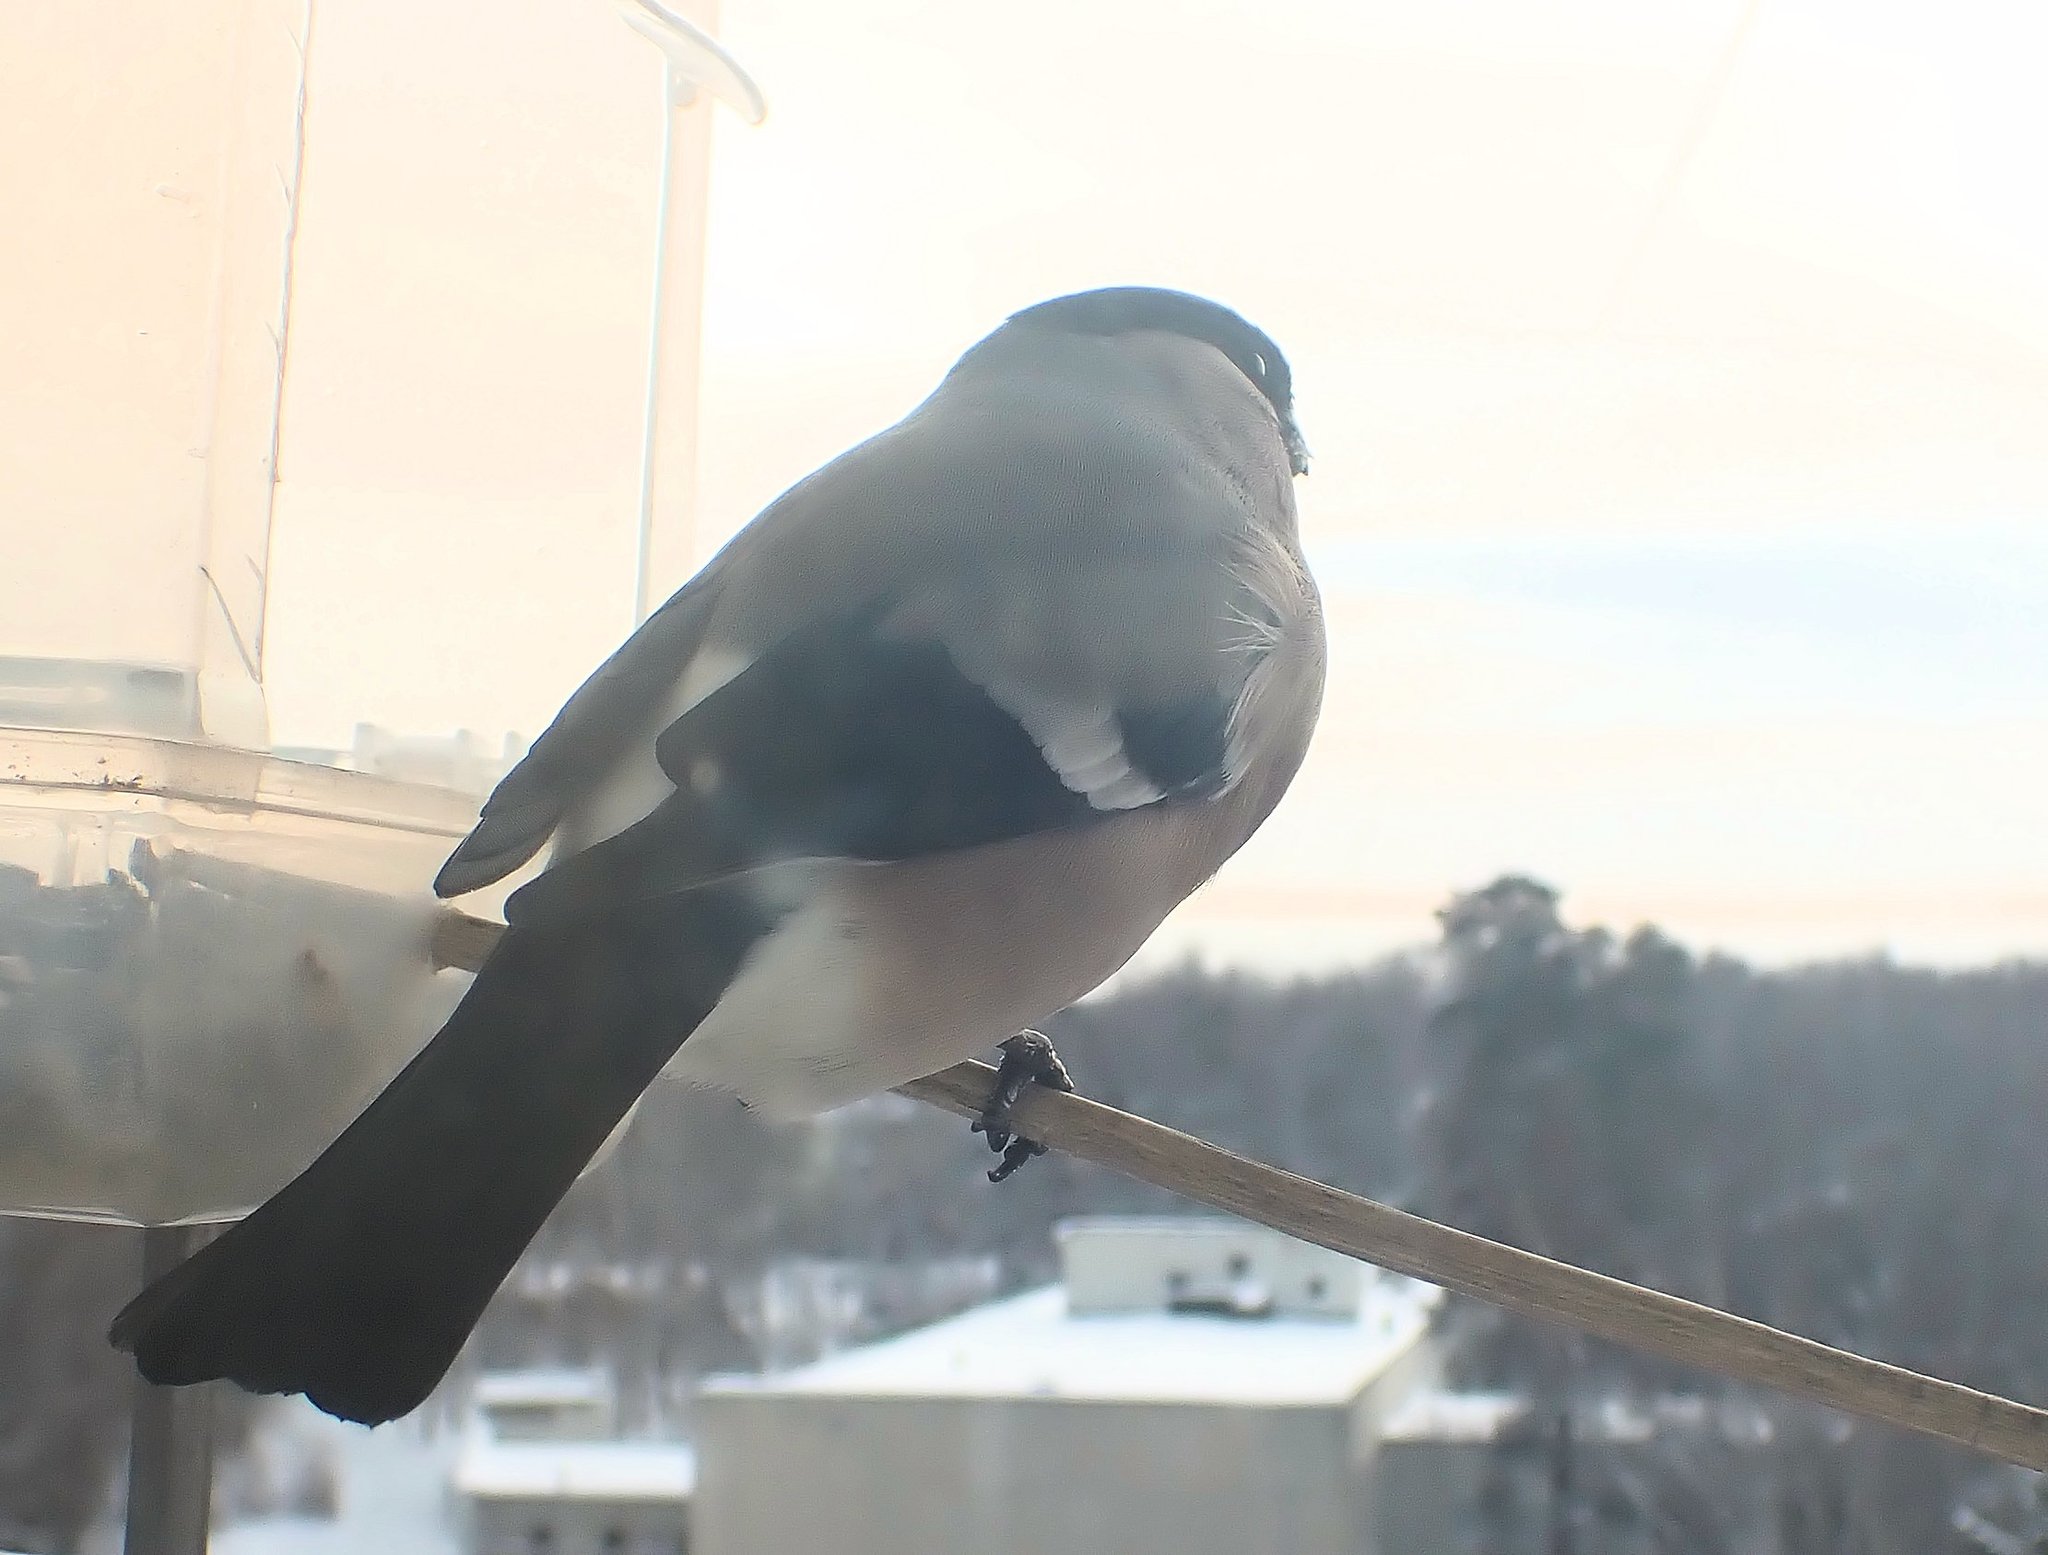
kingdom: Animalia
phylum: Chordata
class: Aves
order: Passeriformes
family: Fringillidae
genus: Pyrrhula
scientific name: Pyrrhula pyrrhula
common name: Eurasian bullfinch
